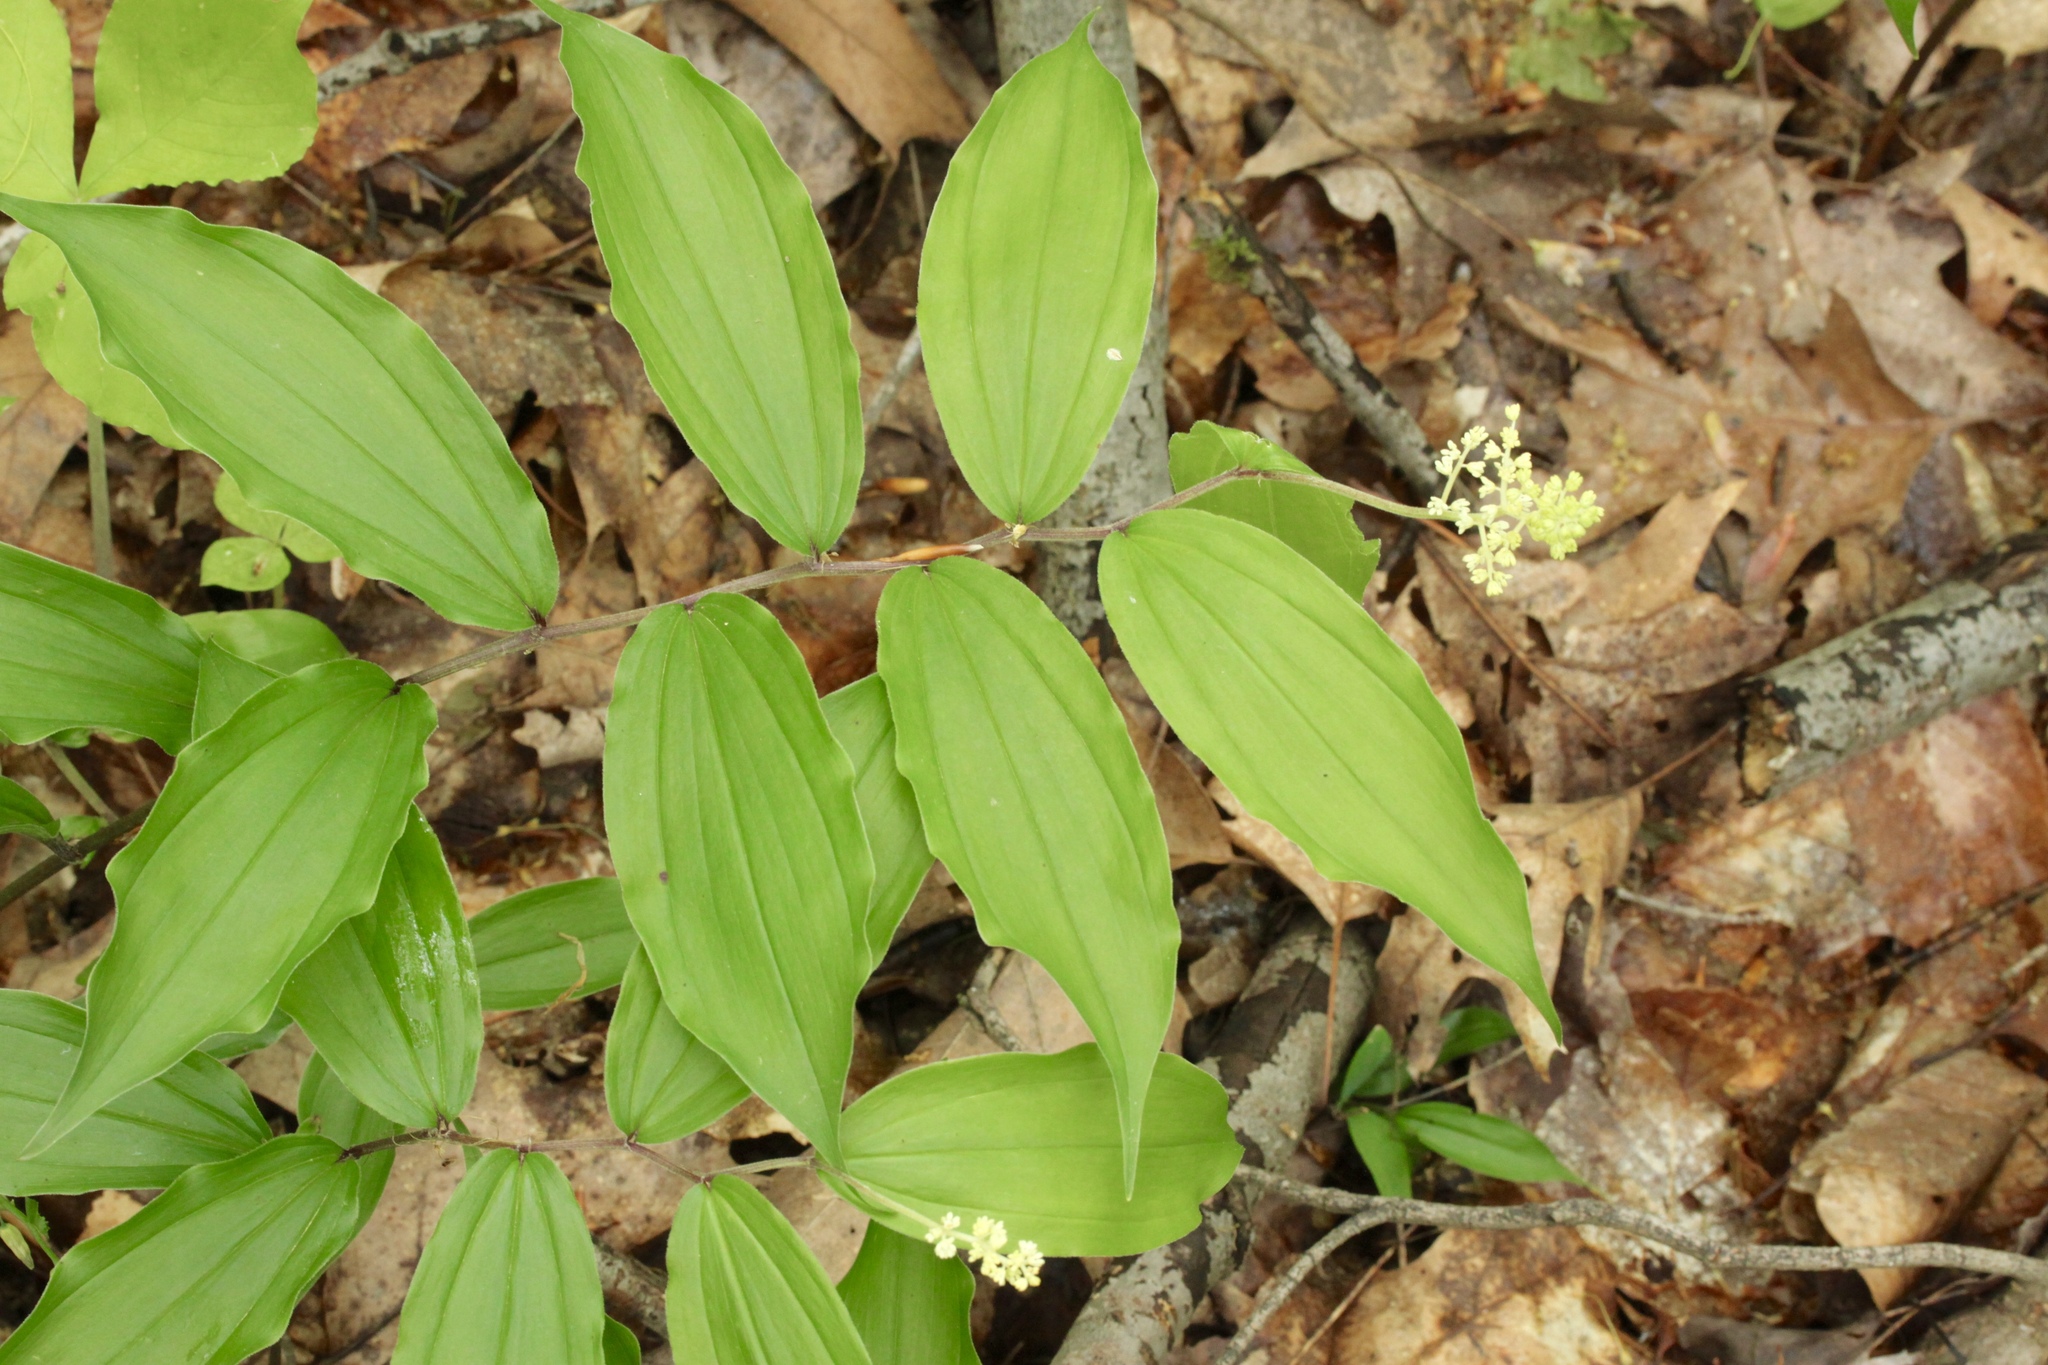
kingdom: Plantae
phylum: Tracheophyta
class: Liliopsida
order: Asparagales
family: Asparagaceae
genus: Maianthemum
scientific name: Maianthemum racemosum
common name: False spikenard
